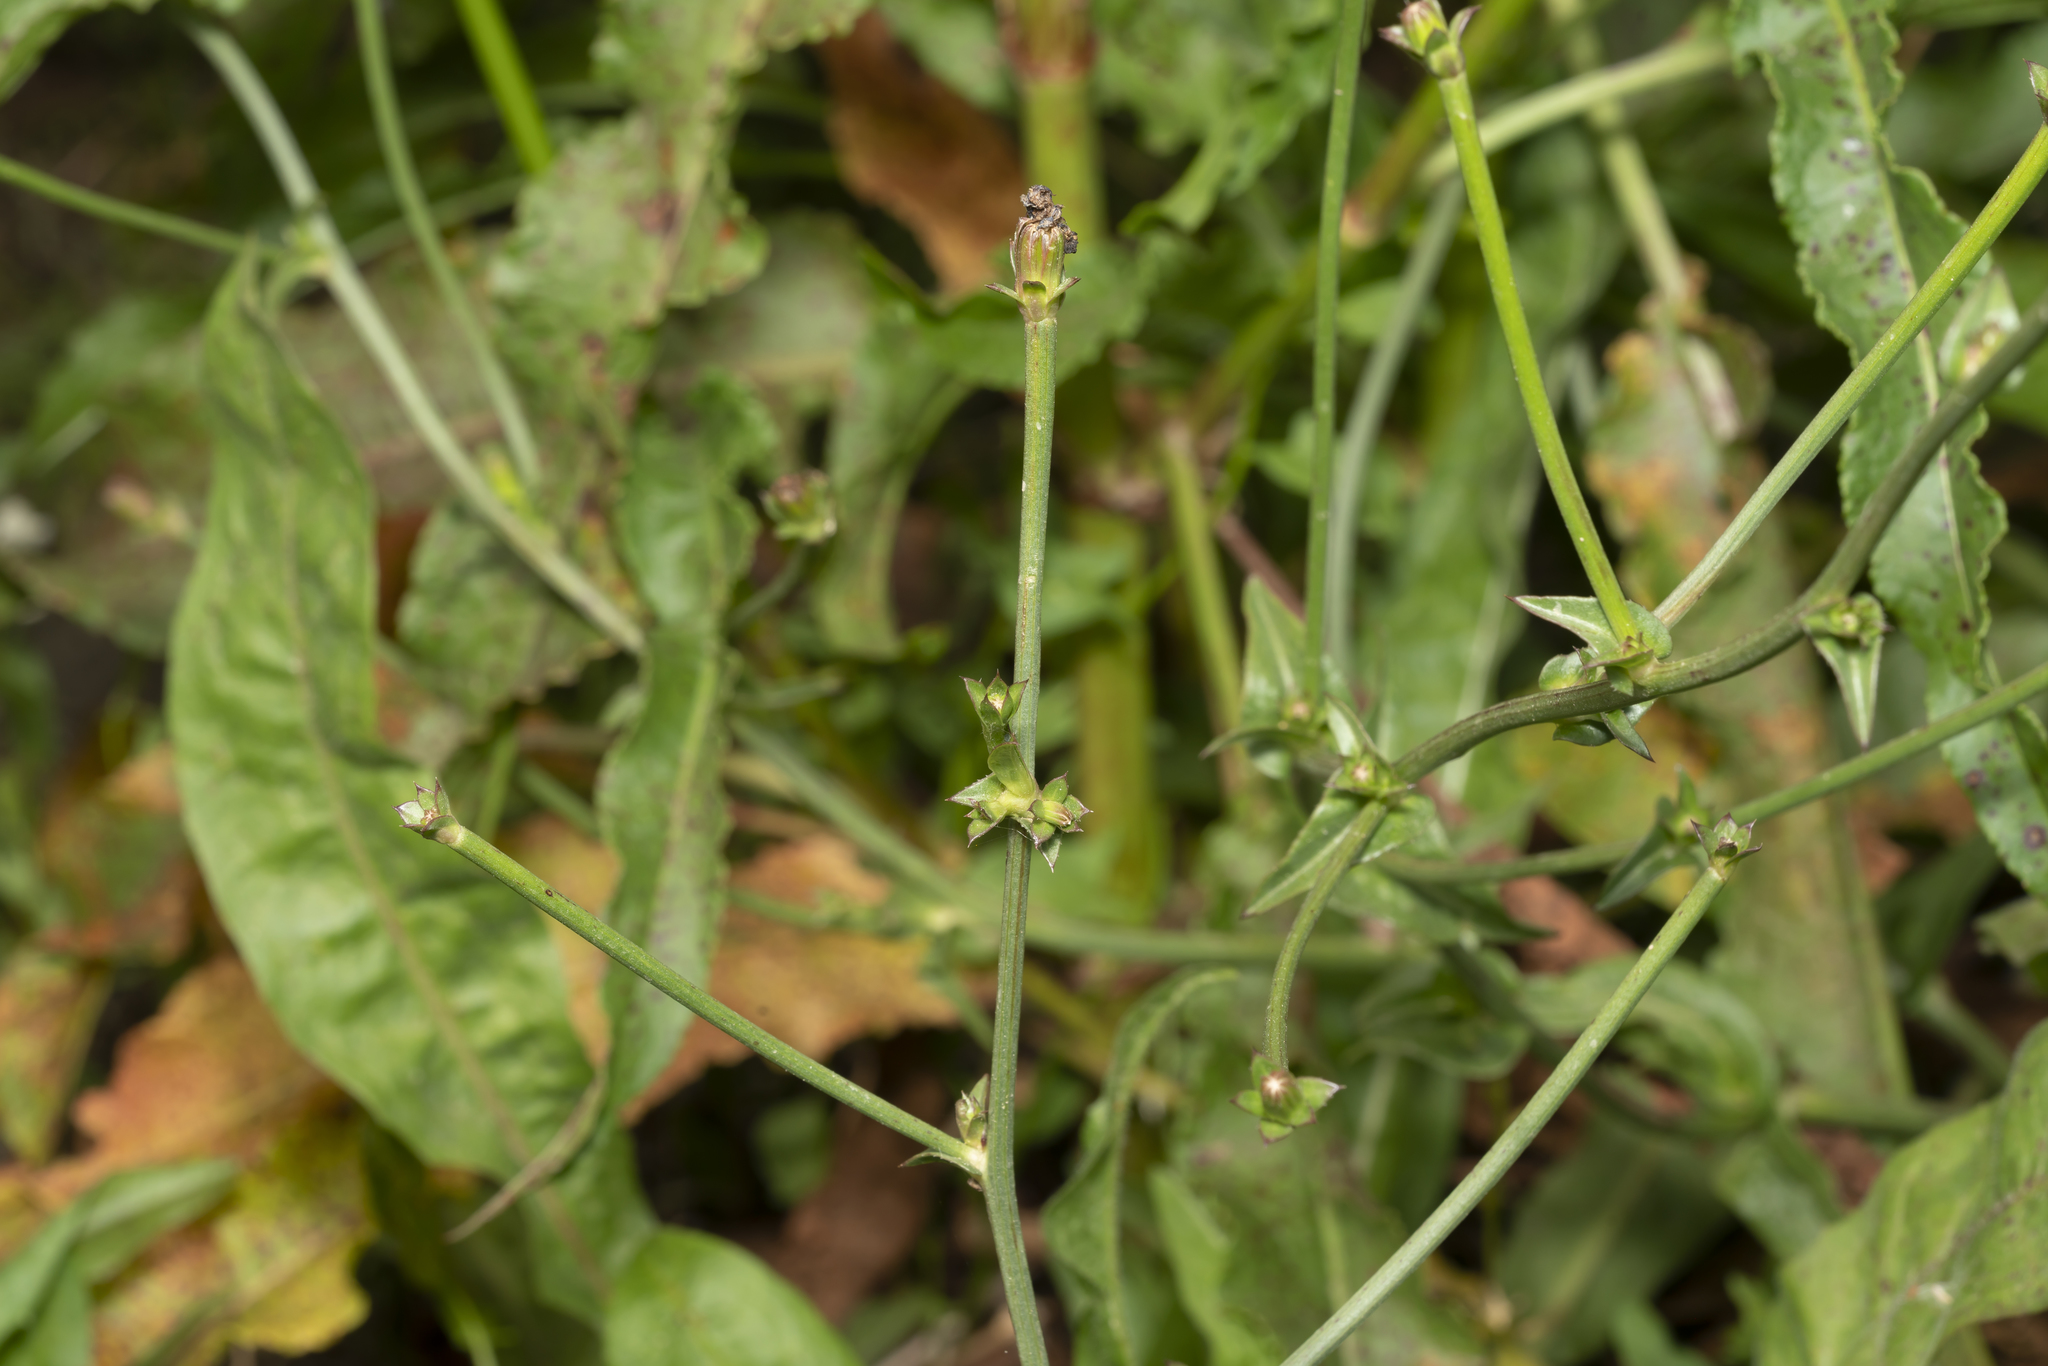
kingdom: Plantae
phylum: Tracheophyta
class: Magnoliopsida
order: Asterales
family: Asteraceae
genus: Cichorium
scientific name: Cichorium intybus
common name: Chicory
